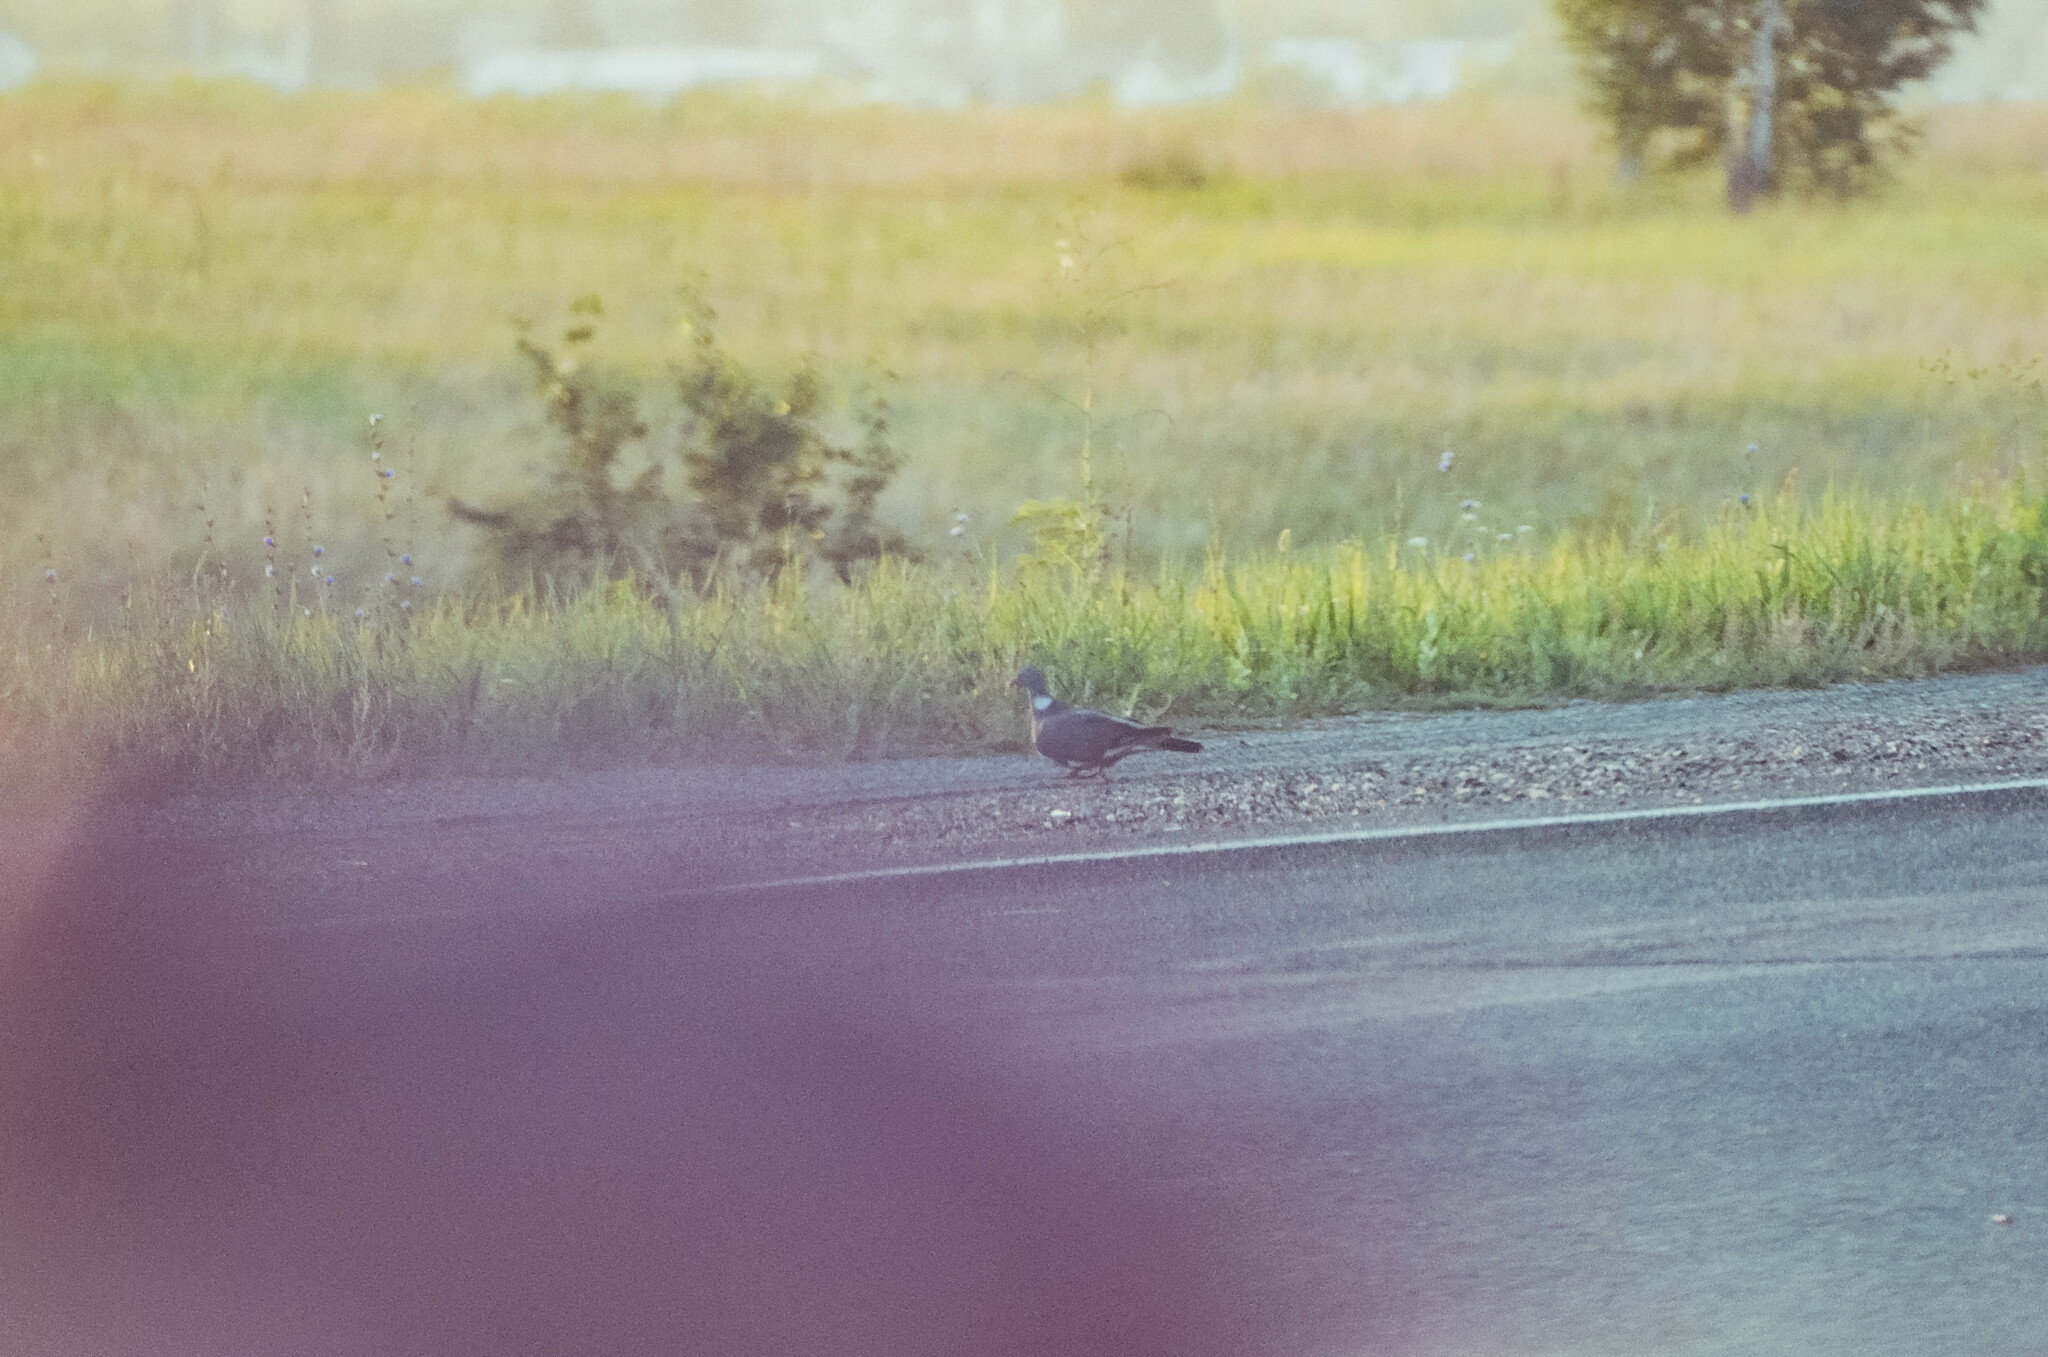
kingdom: Animalia
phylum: Chordata
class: Aves
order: Columbiformes
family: Columbidae
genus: Columba
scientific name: Columba palumbus
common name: Common wood pigeon
